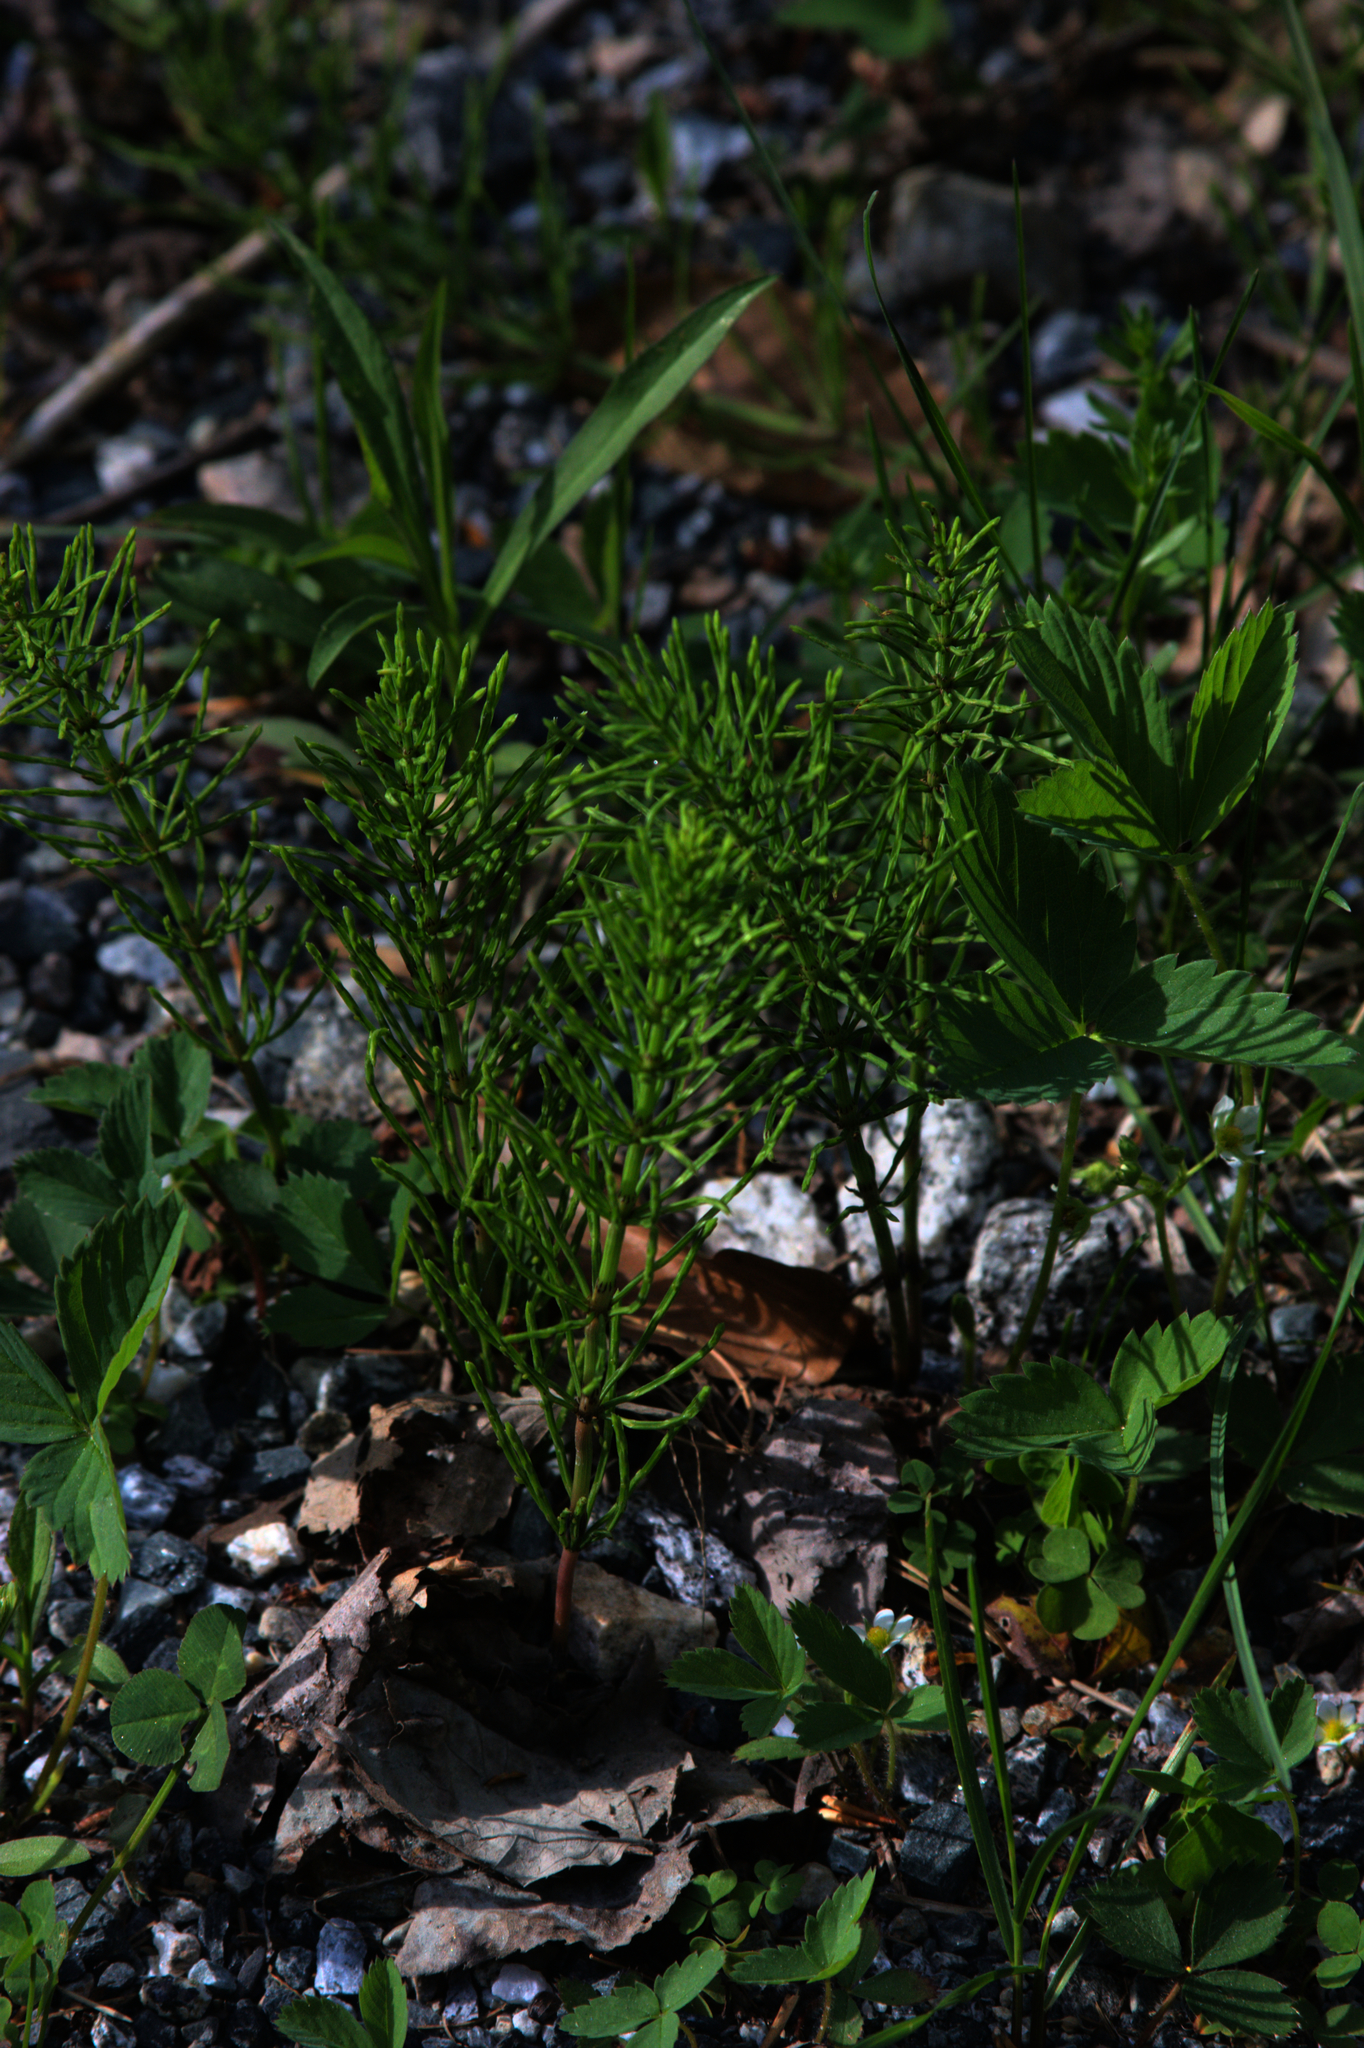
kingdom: Plantae
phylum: Tracheophyta
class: Polypodiopsida
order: Equisetales
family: Equisetaceae
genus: Equisetum
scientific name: Equisetum arvense
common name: Field horsetail
